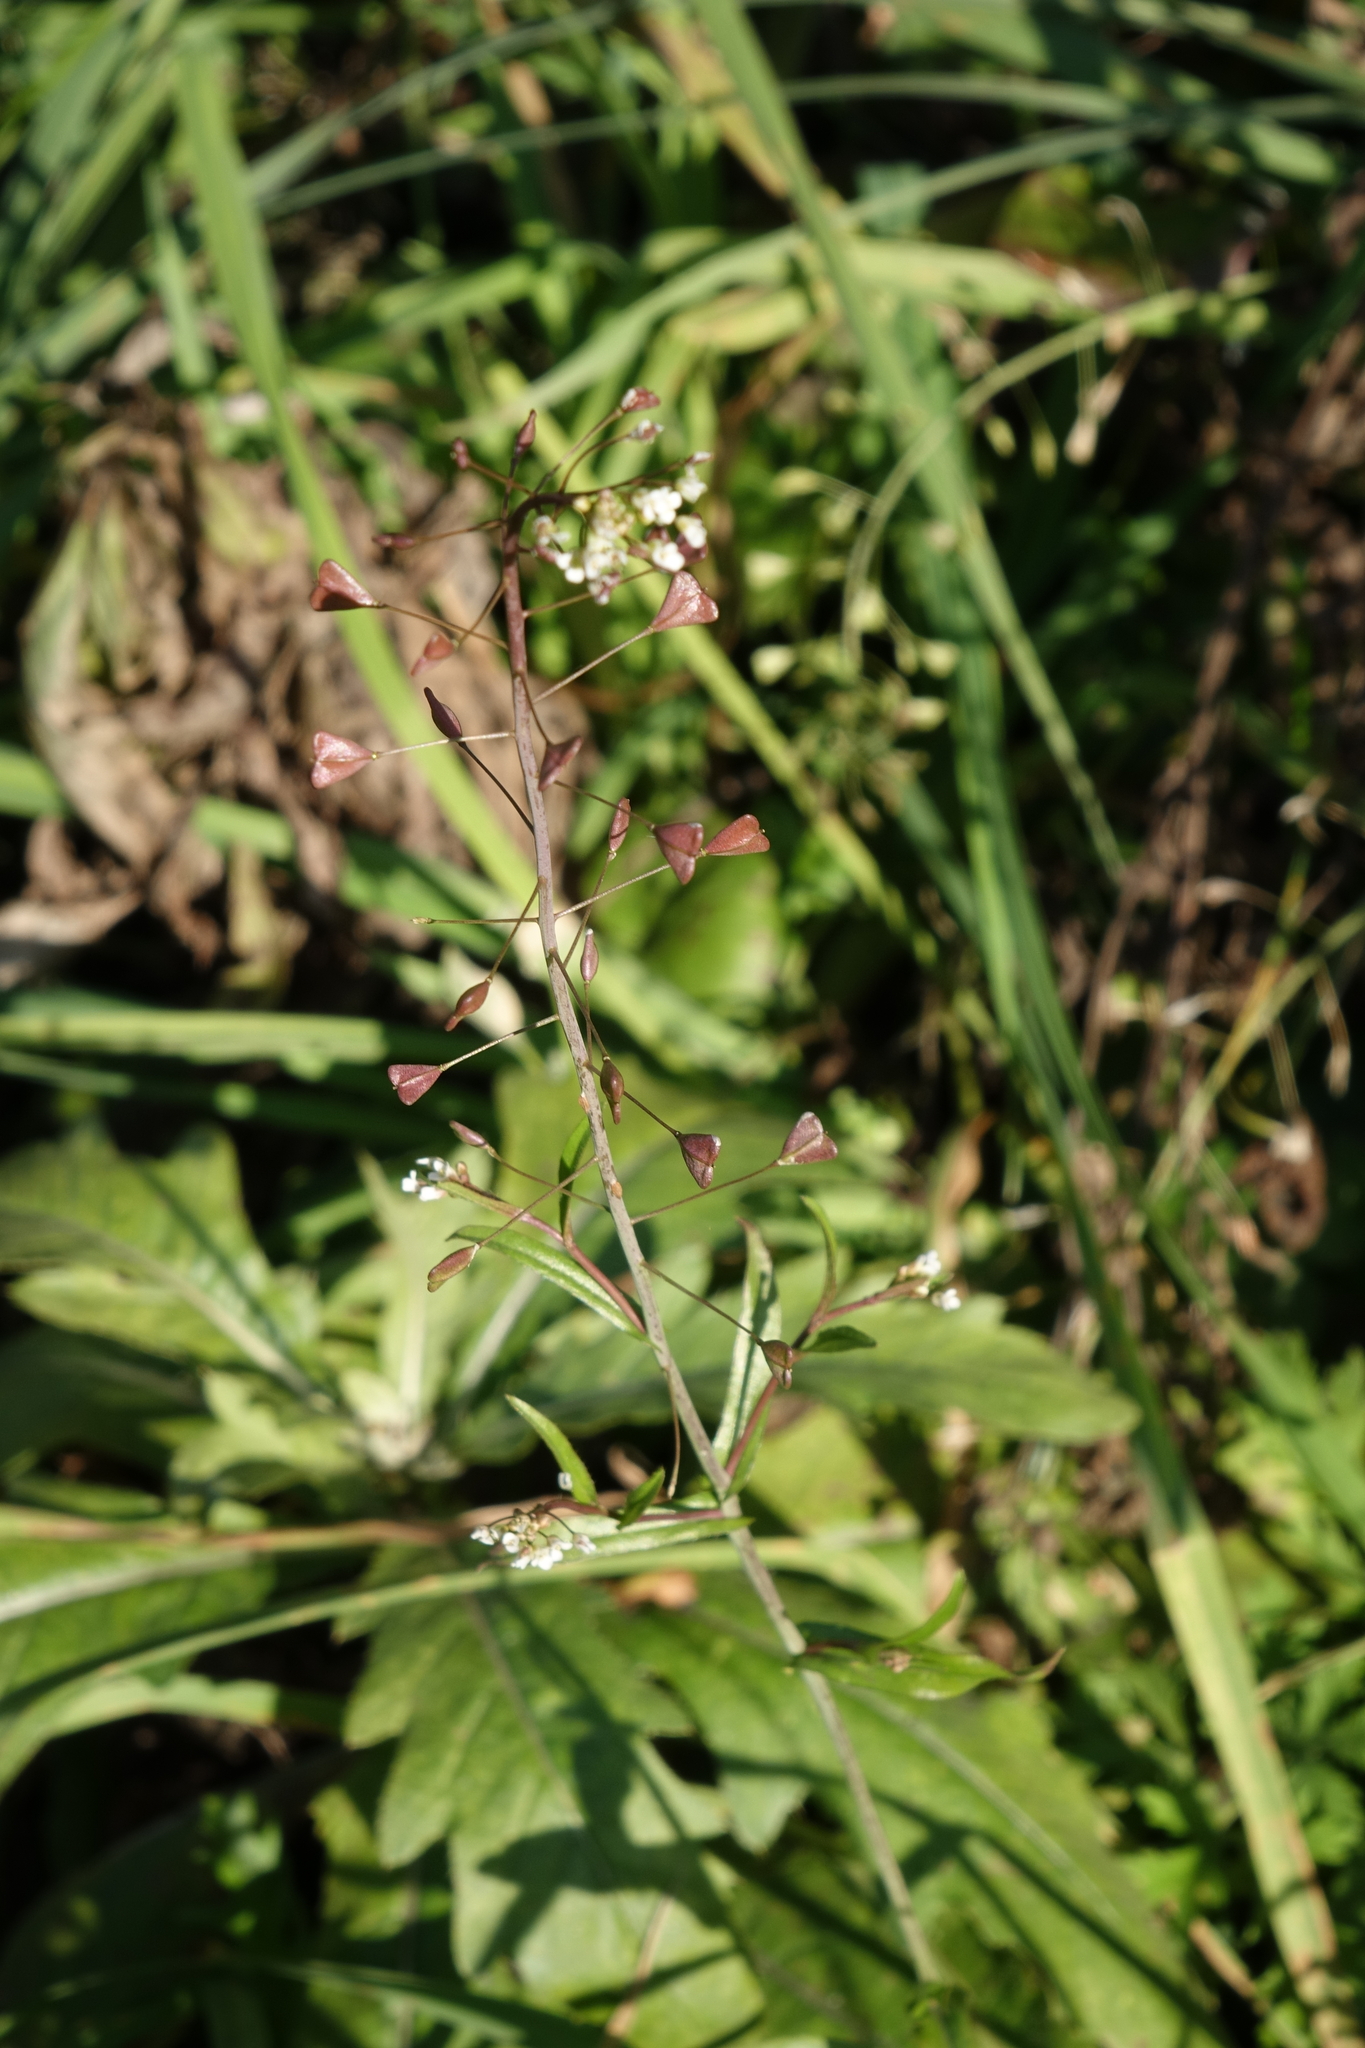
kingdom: Plantae
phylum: Tracheophyta
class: Magnoliopsida
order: Brassicales
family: Brassicaceae
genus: Capsella
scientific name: Capsella bursa-pastoris
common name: Shepherd's purse
